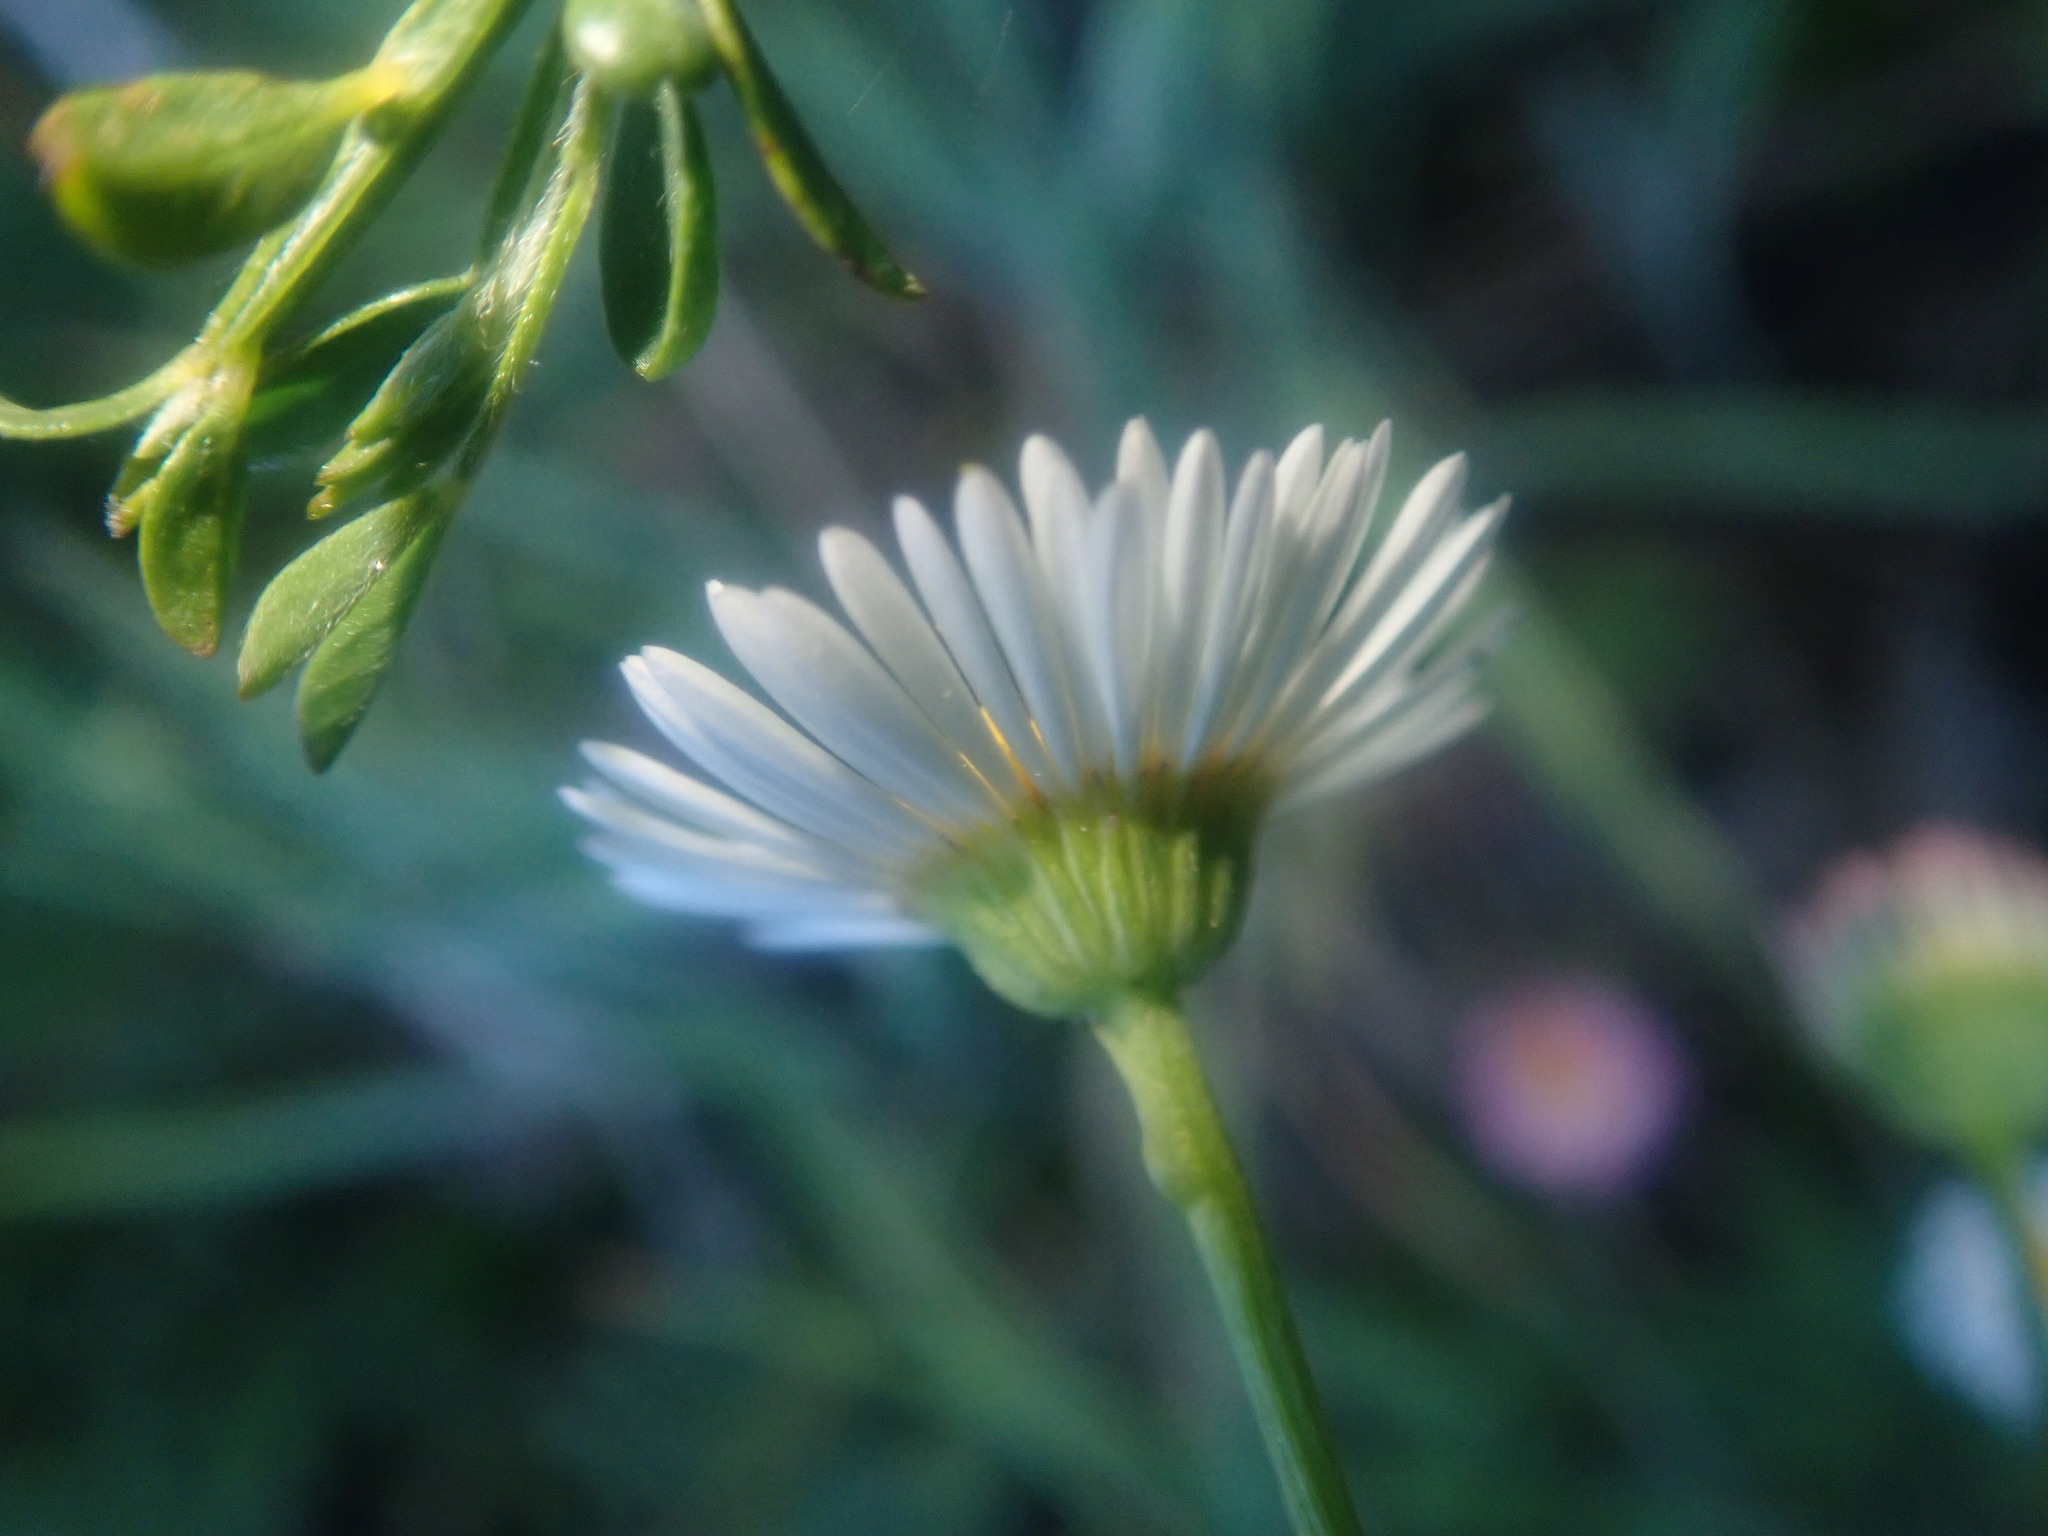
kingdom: Plantae
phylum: Tracheophyta
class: Magnoliopsida
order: Asterales
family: Asteraceae
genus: Erigeron
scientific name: Erigeron karvinskianus
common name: Mexican fleabane
